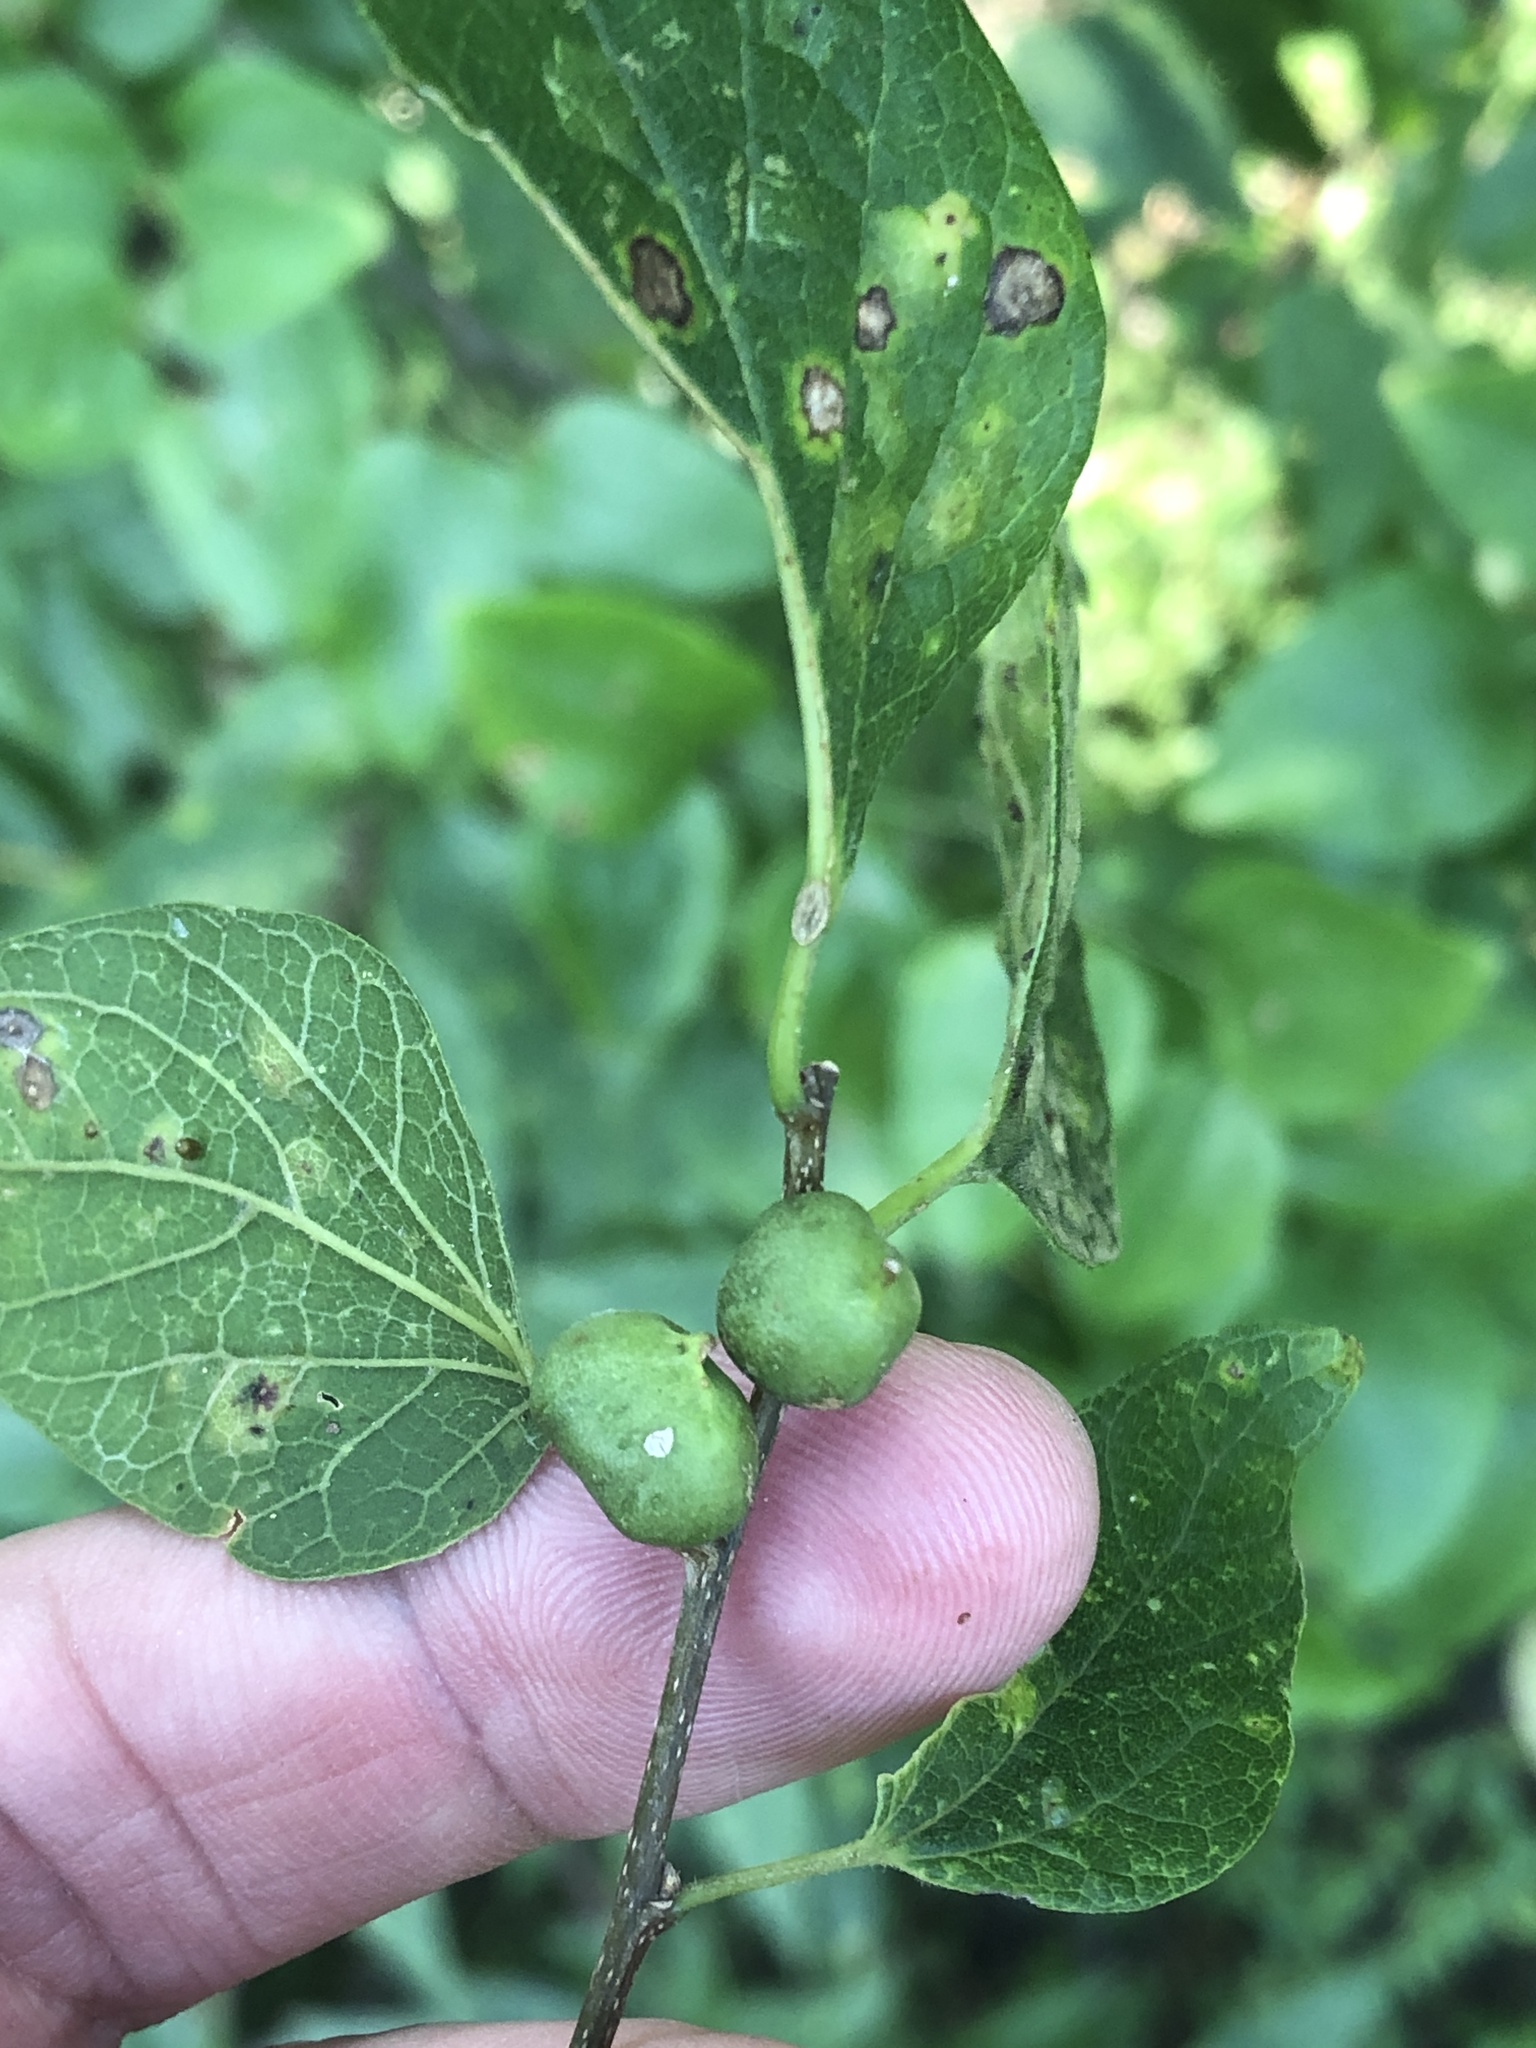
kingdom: Animalia
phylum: Arthropoda
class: Insecta
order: Diptera
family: Cecidomyiidae
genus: Celticecis
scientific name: Celticecis connata
